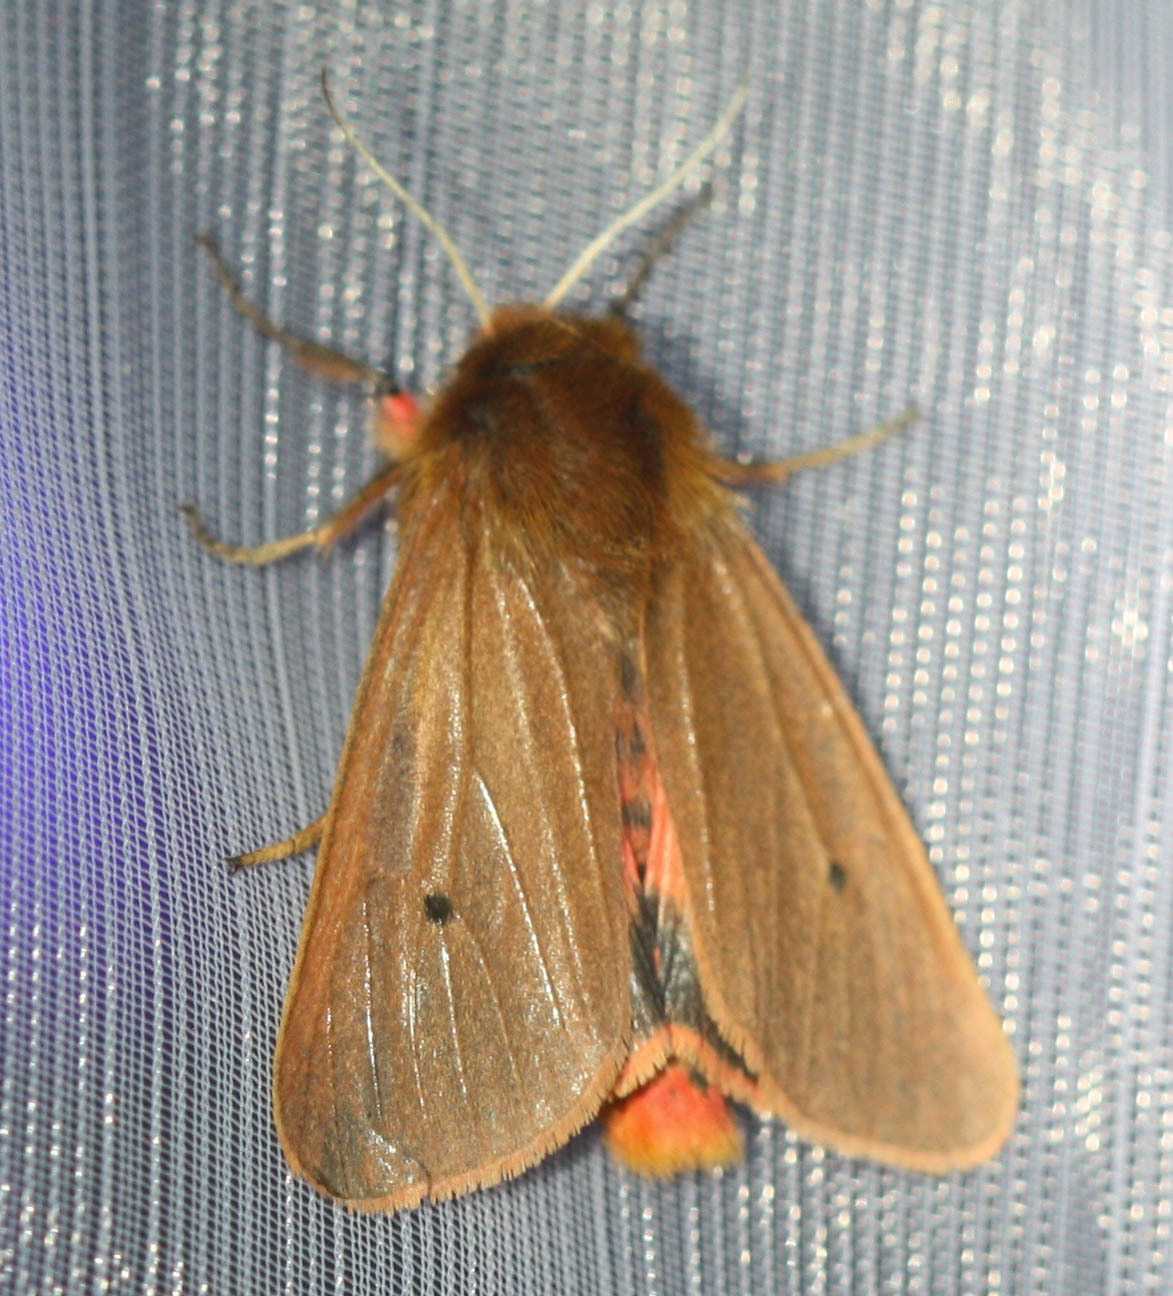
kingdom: Animalia
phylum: Arthropoda
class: Insecta
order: Lepidoptera
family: Erebidae
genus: Phragmatobia
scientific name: Phragmatobia fuliginosa
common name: Ruby tiger
